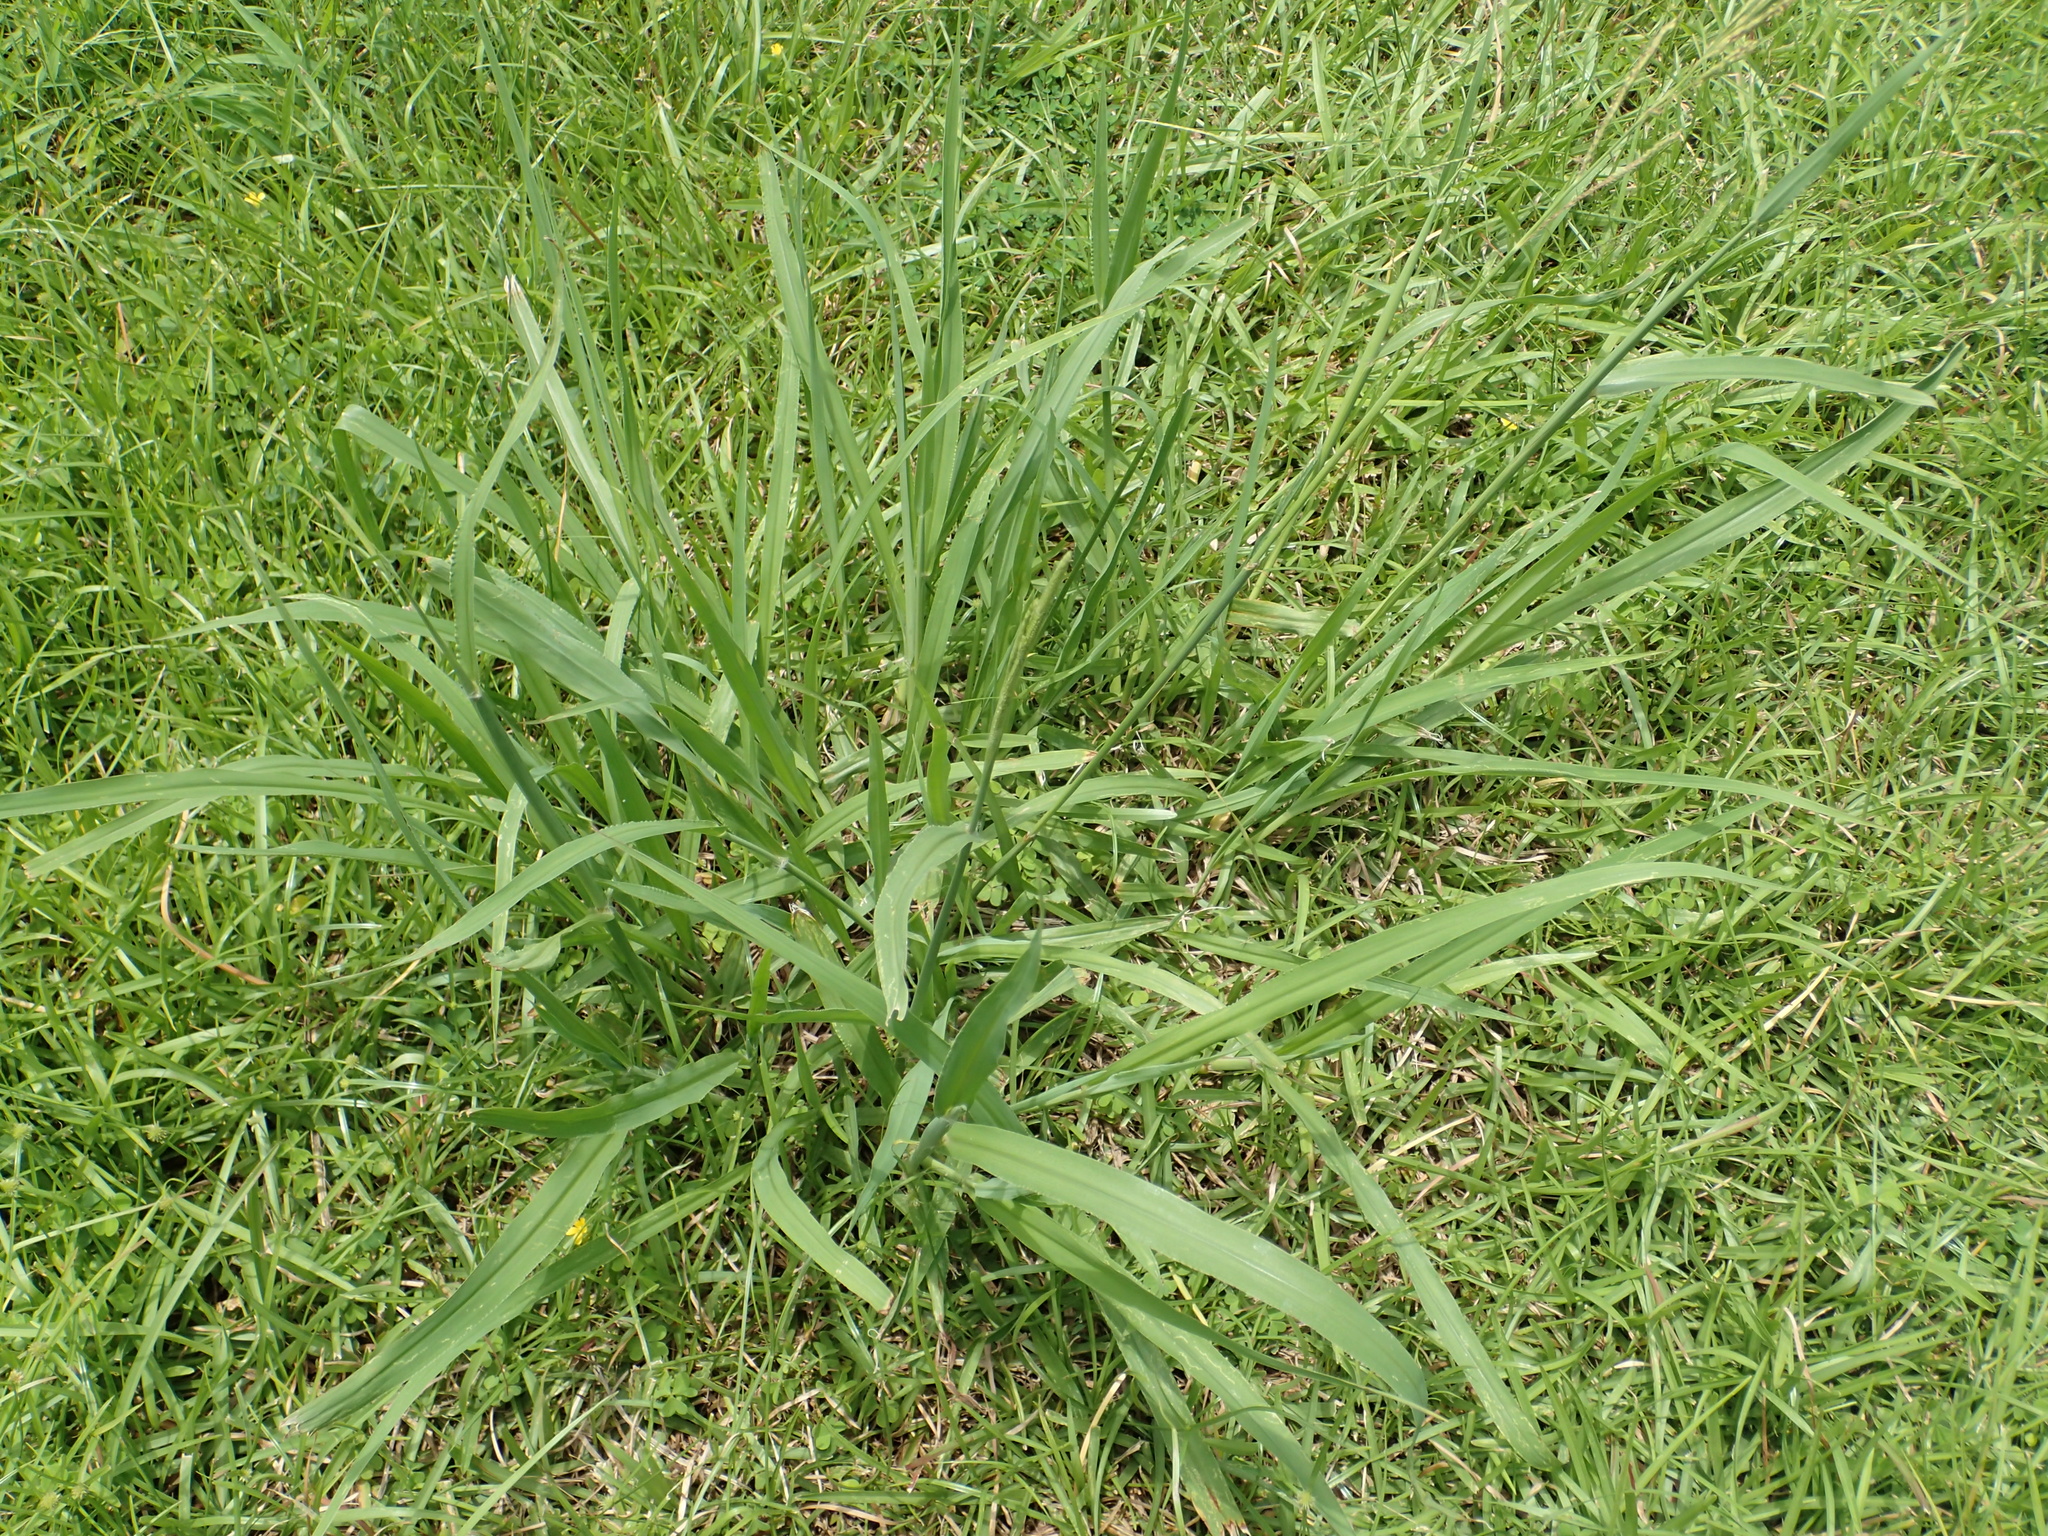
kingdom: Plantae
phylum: Tracheophyta
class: Liliopsida
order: Poales
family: Poaceae
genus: Paspalum
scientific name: Paspalum urvillei
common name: Vasey's grass
